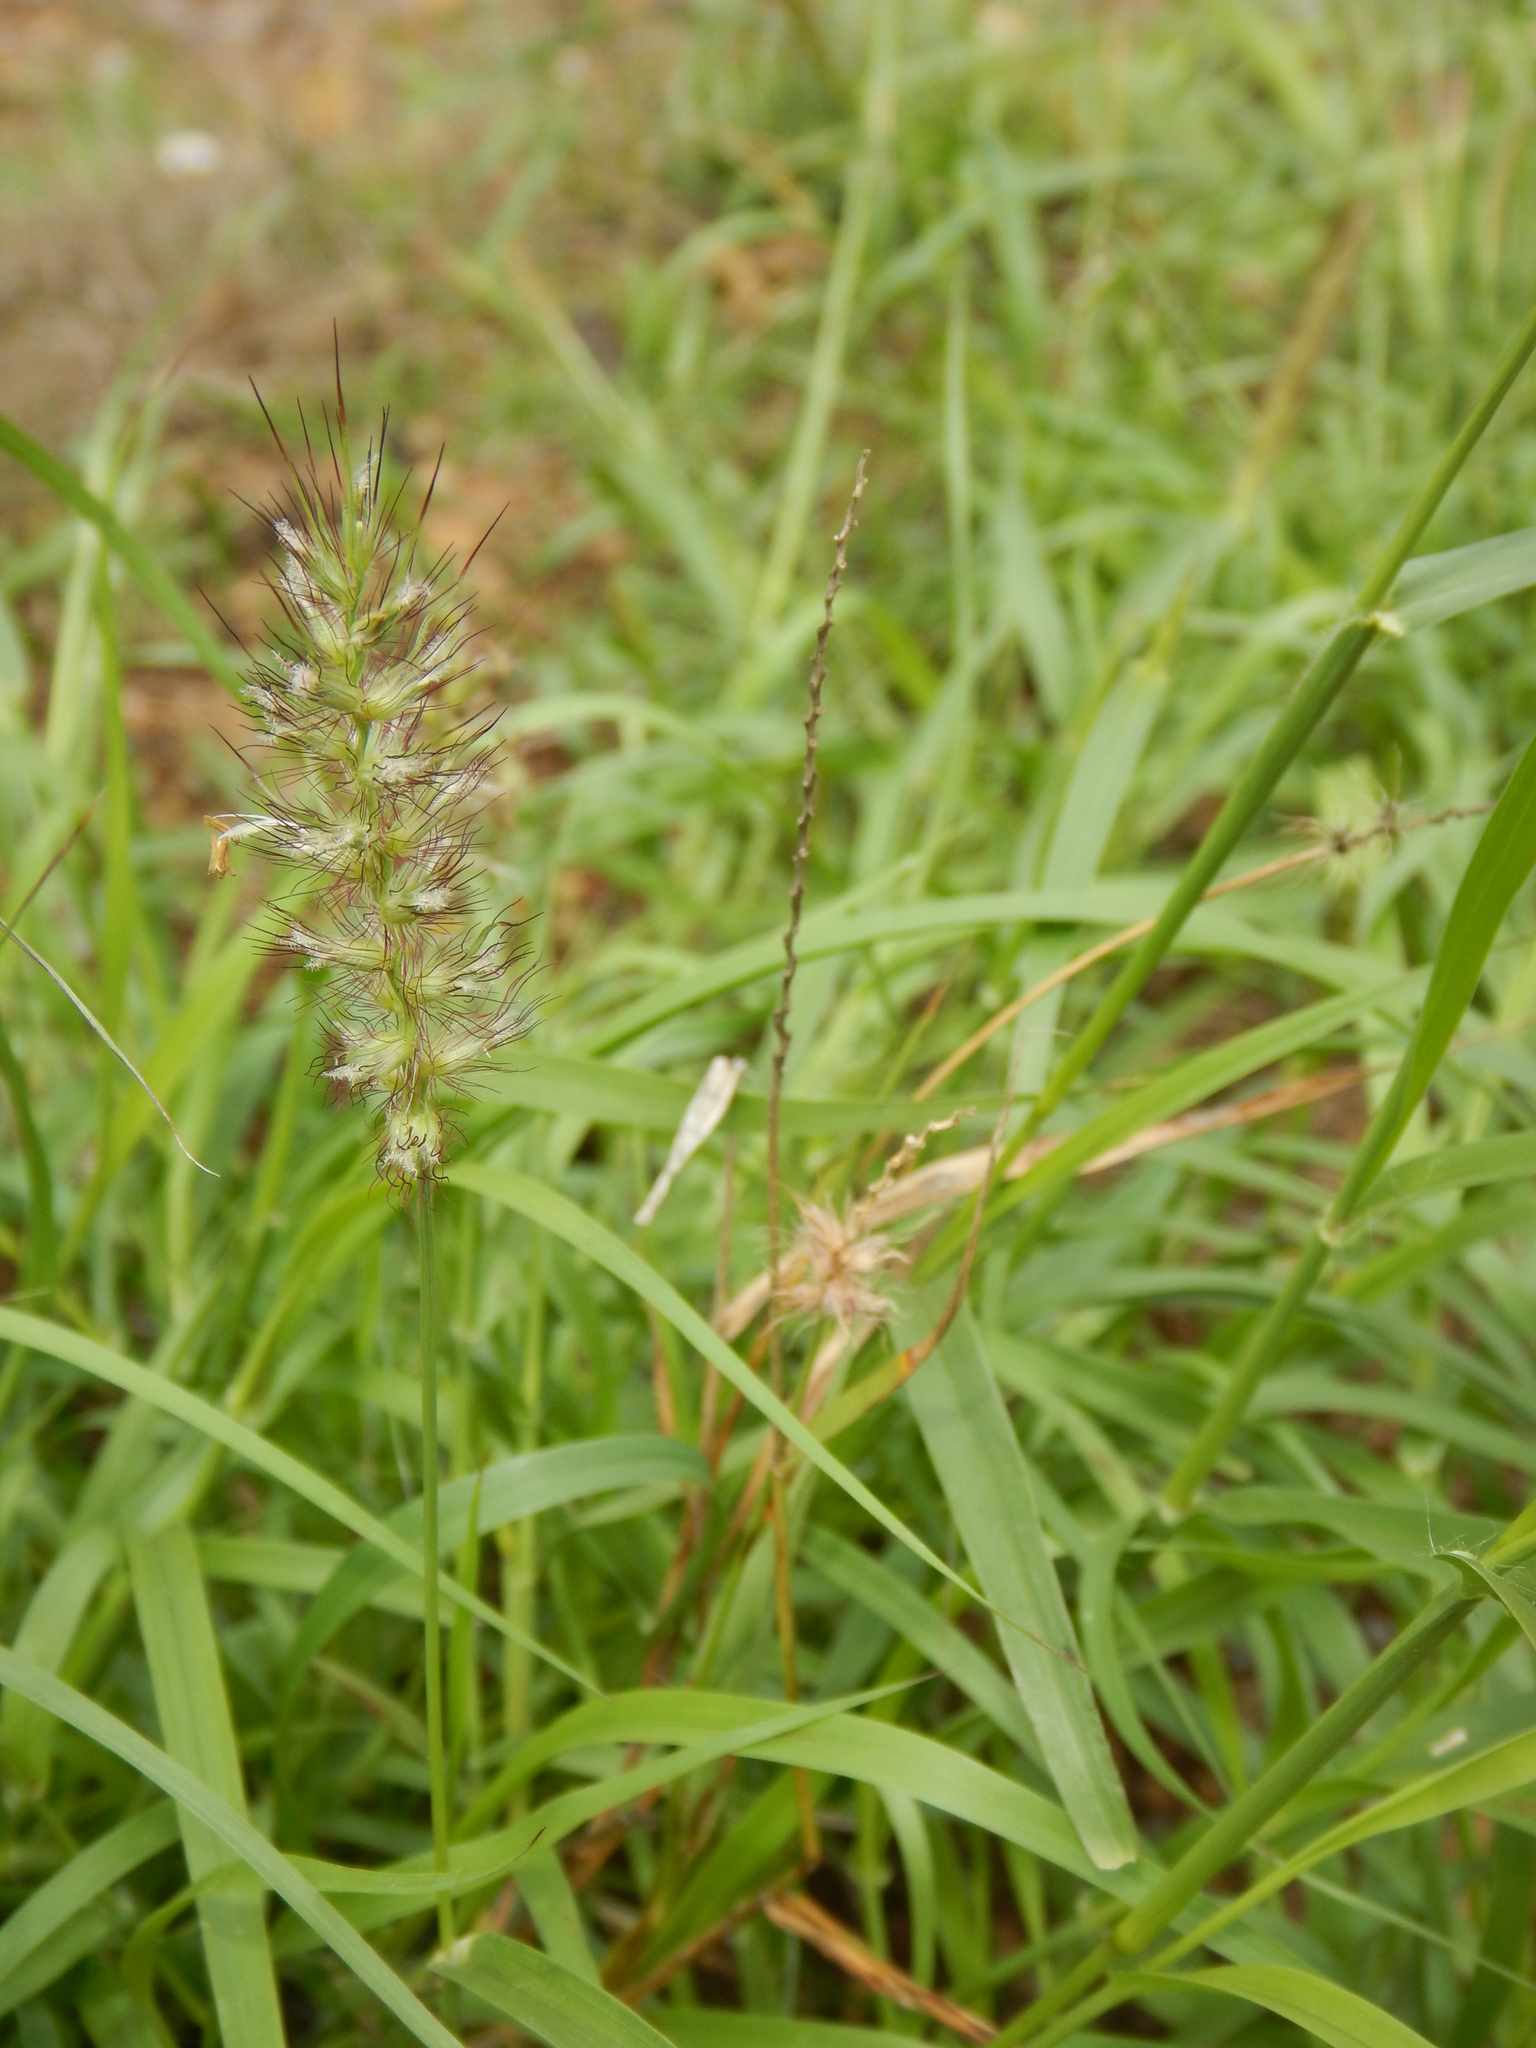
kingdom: Plantae
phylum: Tracheophyta
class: Liliopsida
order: Poales
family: Poaceae
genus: Cenchrus
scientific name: Cenchrus ciliaris
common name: Buffelgrass
